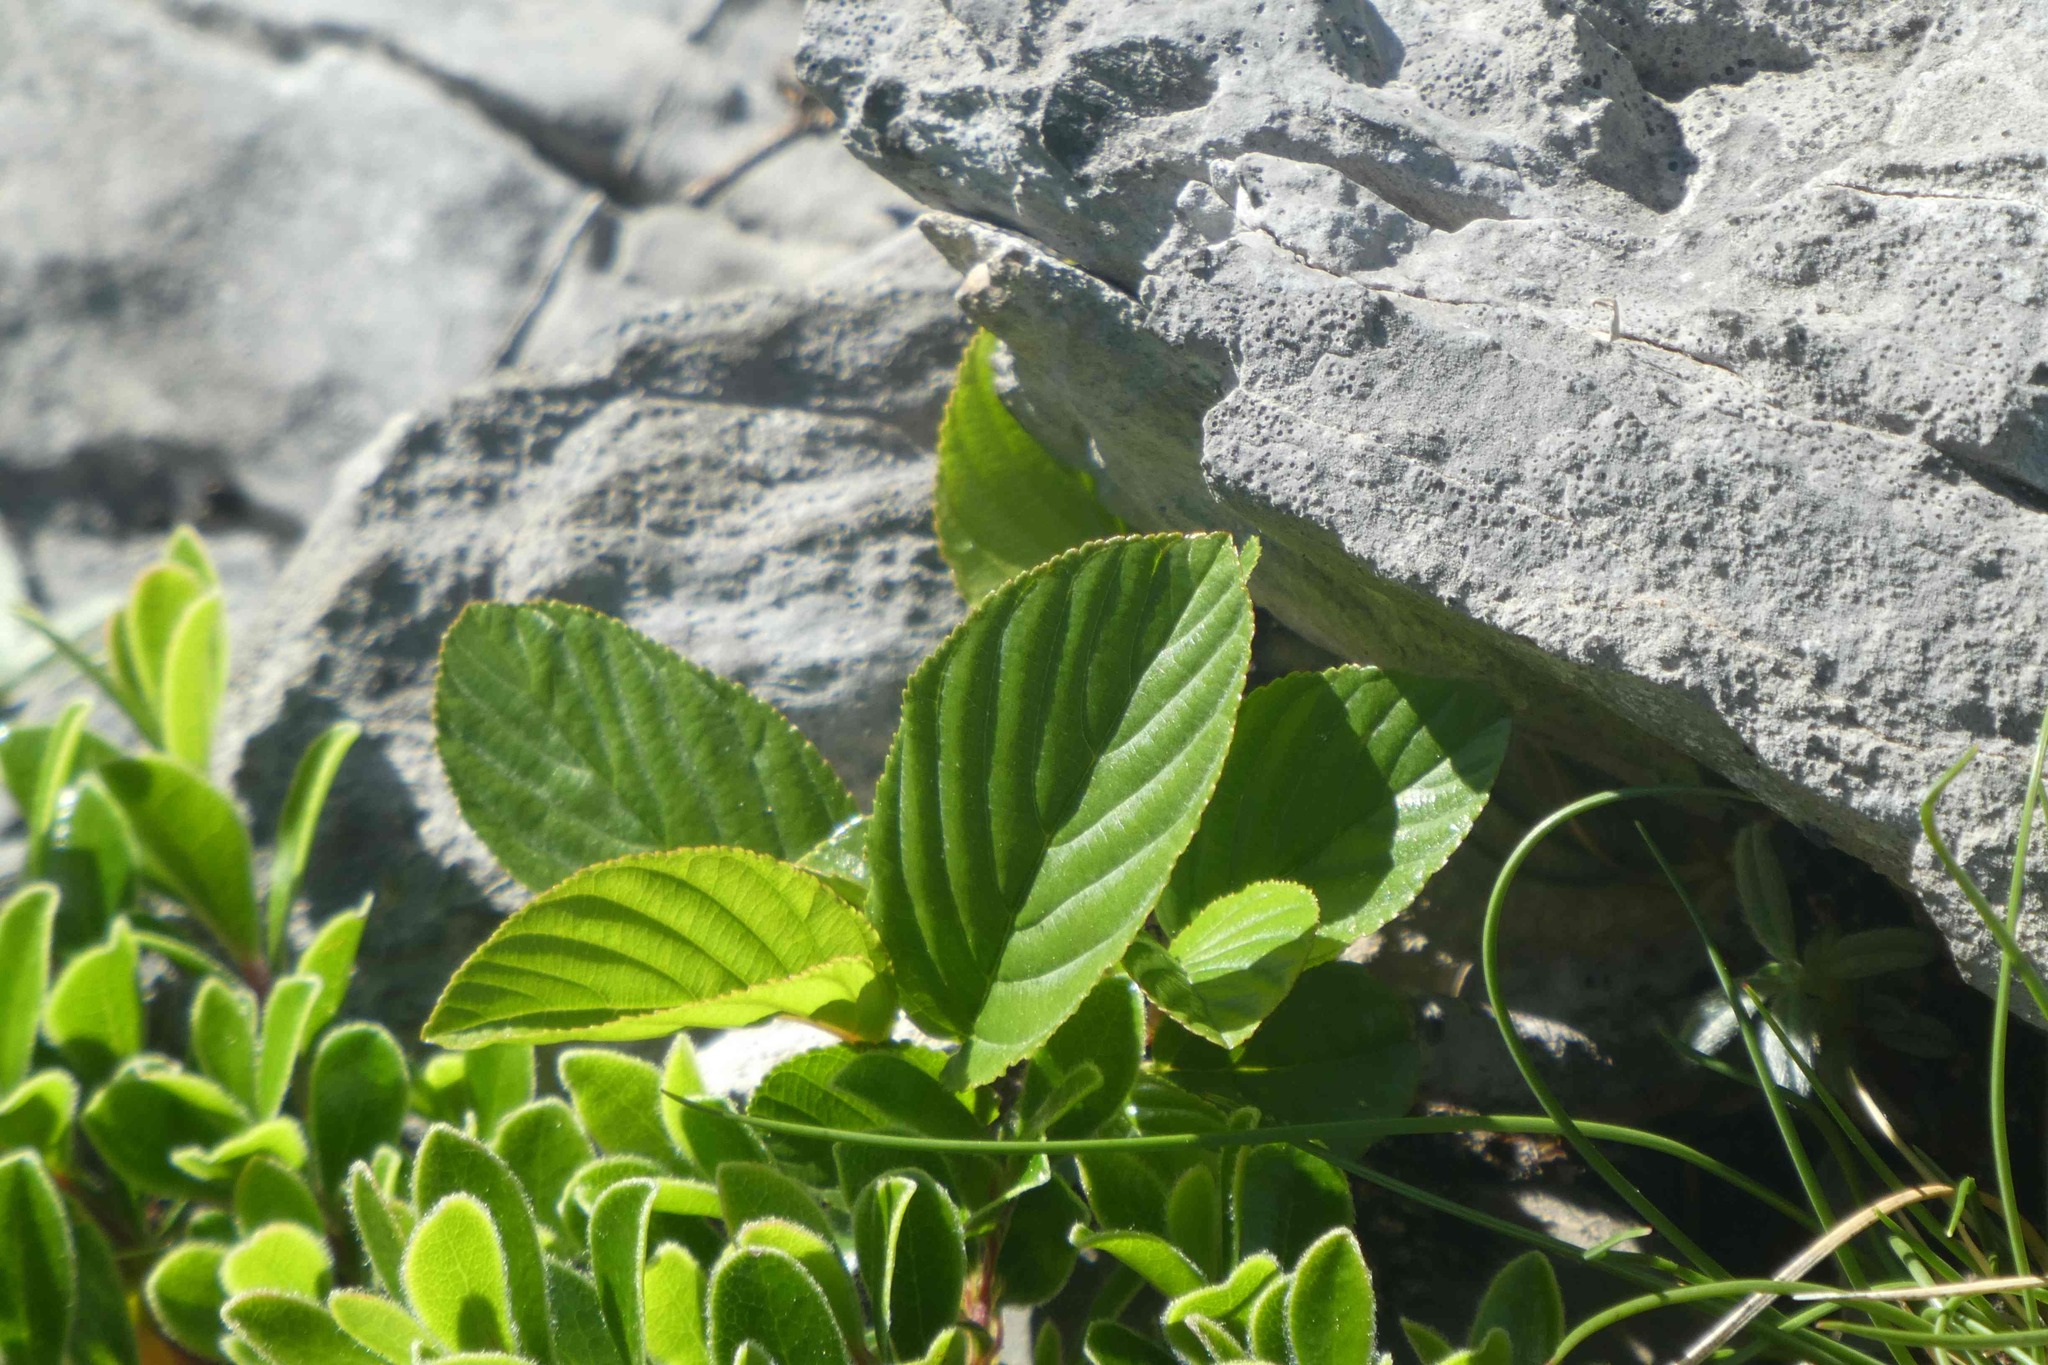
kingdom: Plantae
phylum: Tracheophyta
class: Magnoliopsida
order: Rosales
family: Rhamnaceae
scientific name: Rhamnaceae
